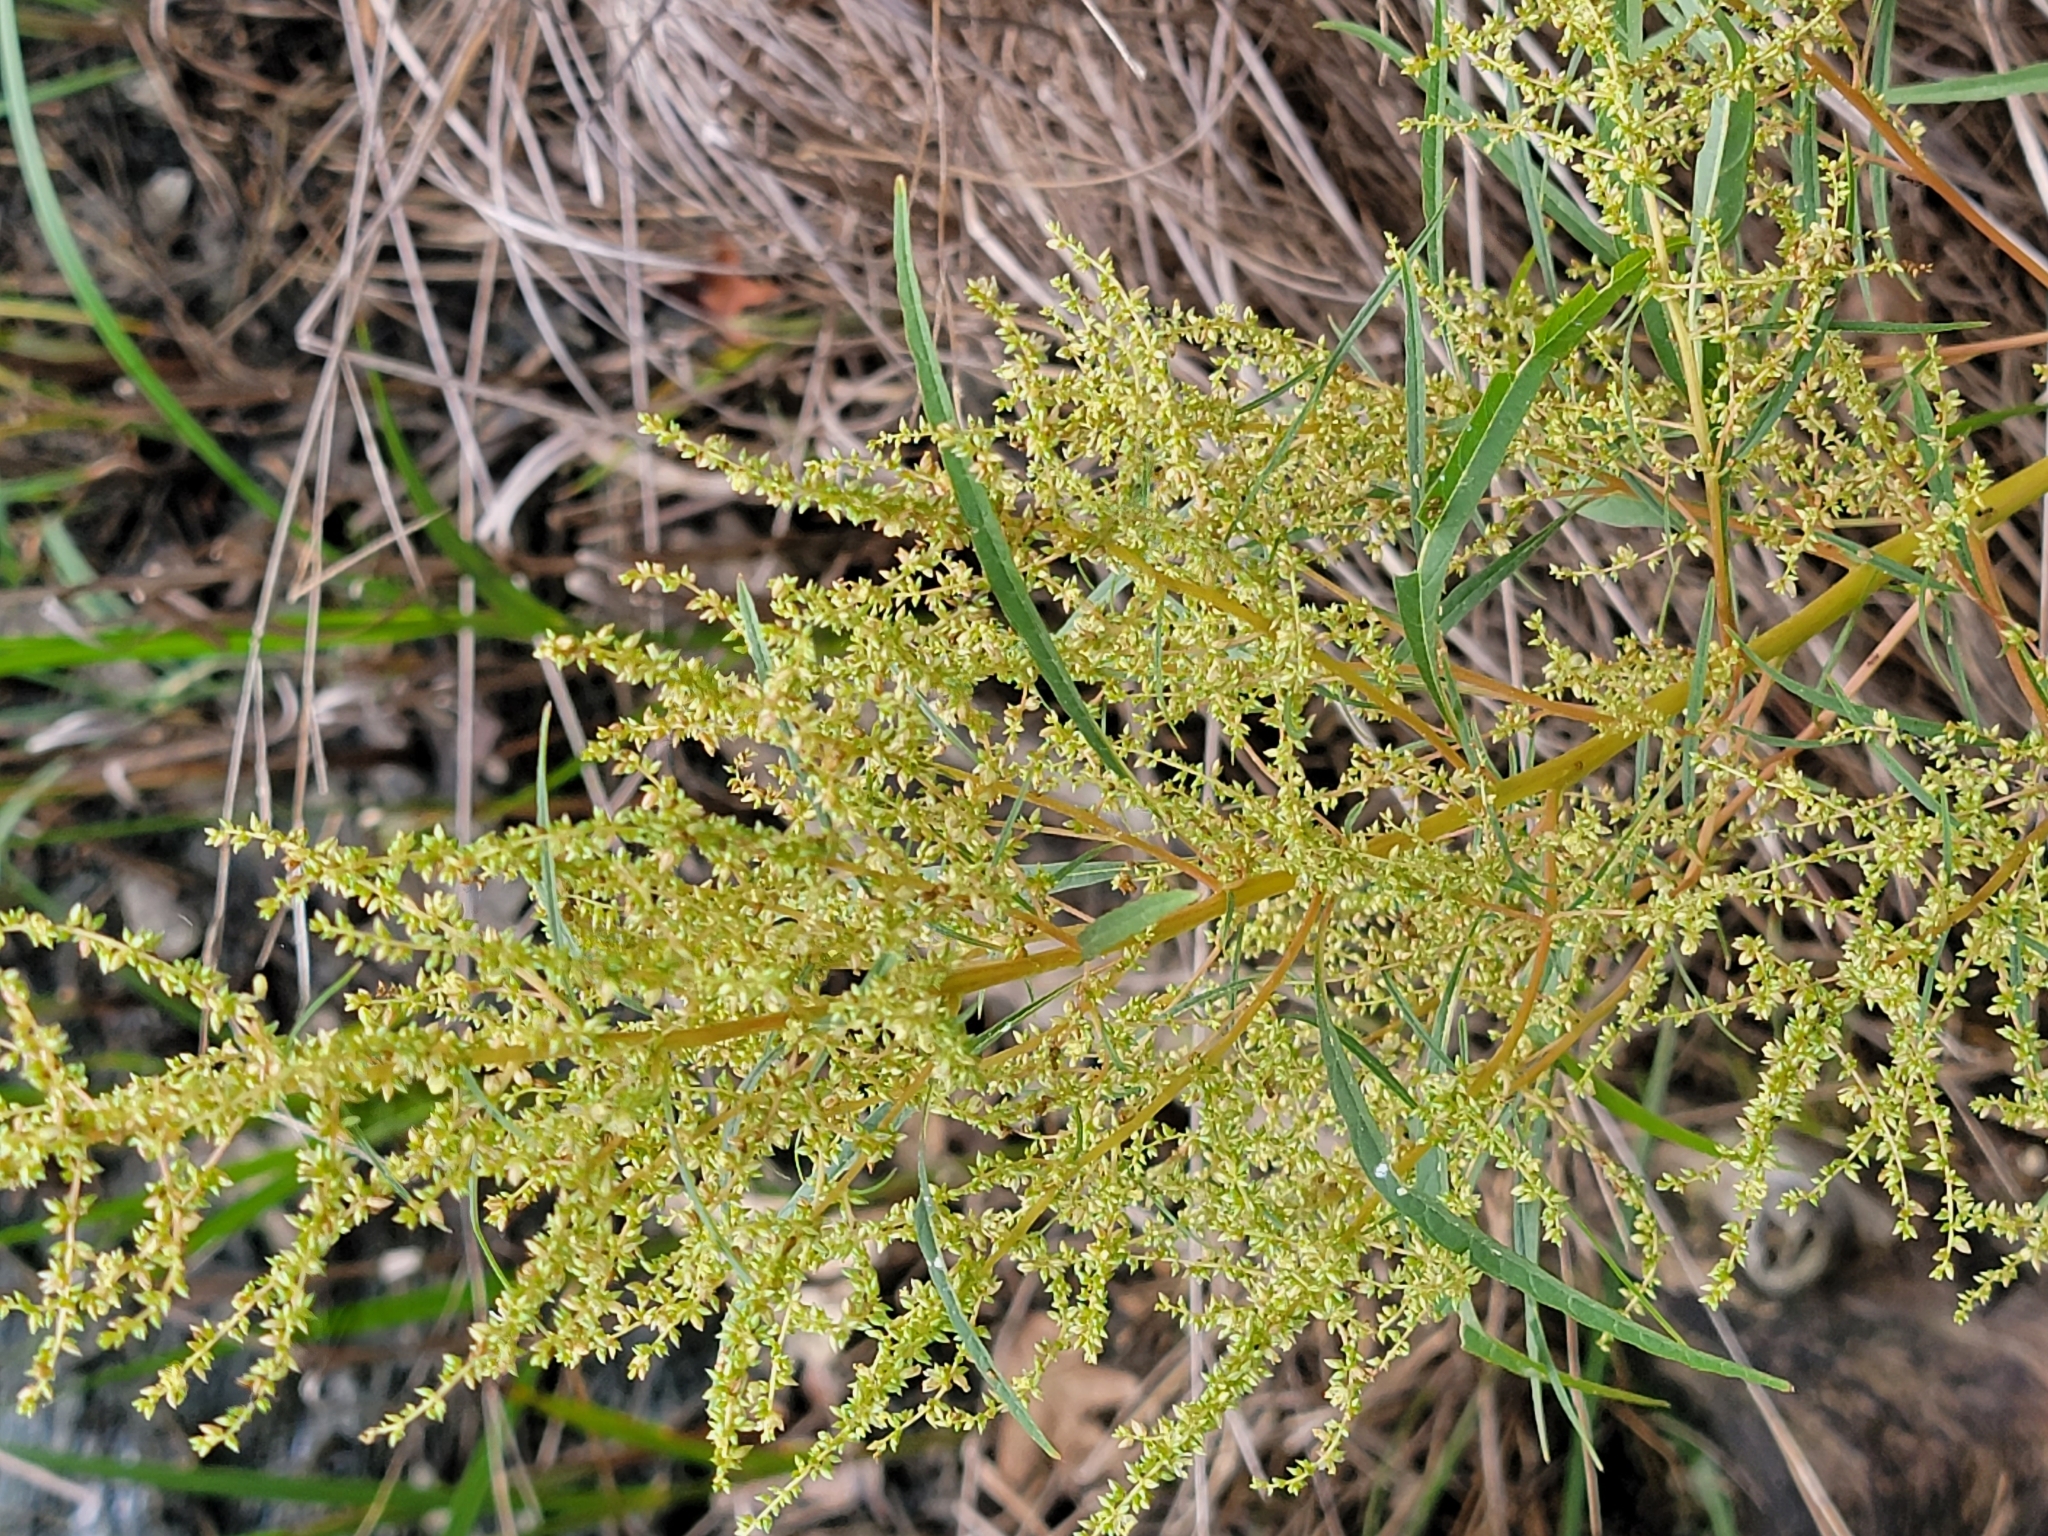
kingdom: Plantae
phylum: Tracheophyta
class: Magnoliopsida
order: Caryophyllales
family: Amaranthaceae
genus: Amaranthus
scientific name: Amaranthus cannabinus
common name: Salt-marsh water-hemp
